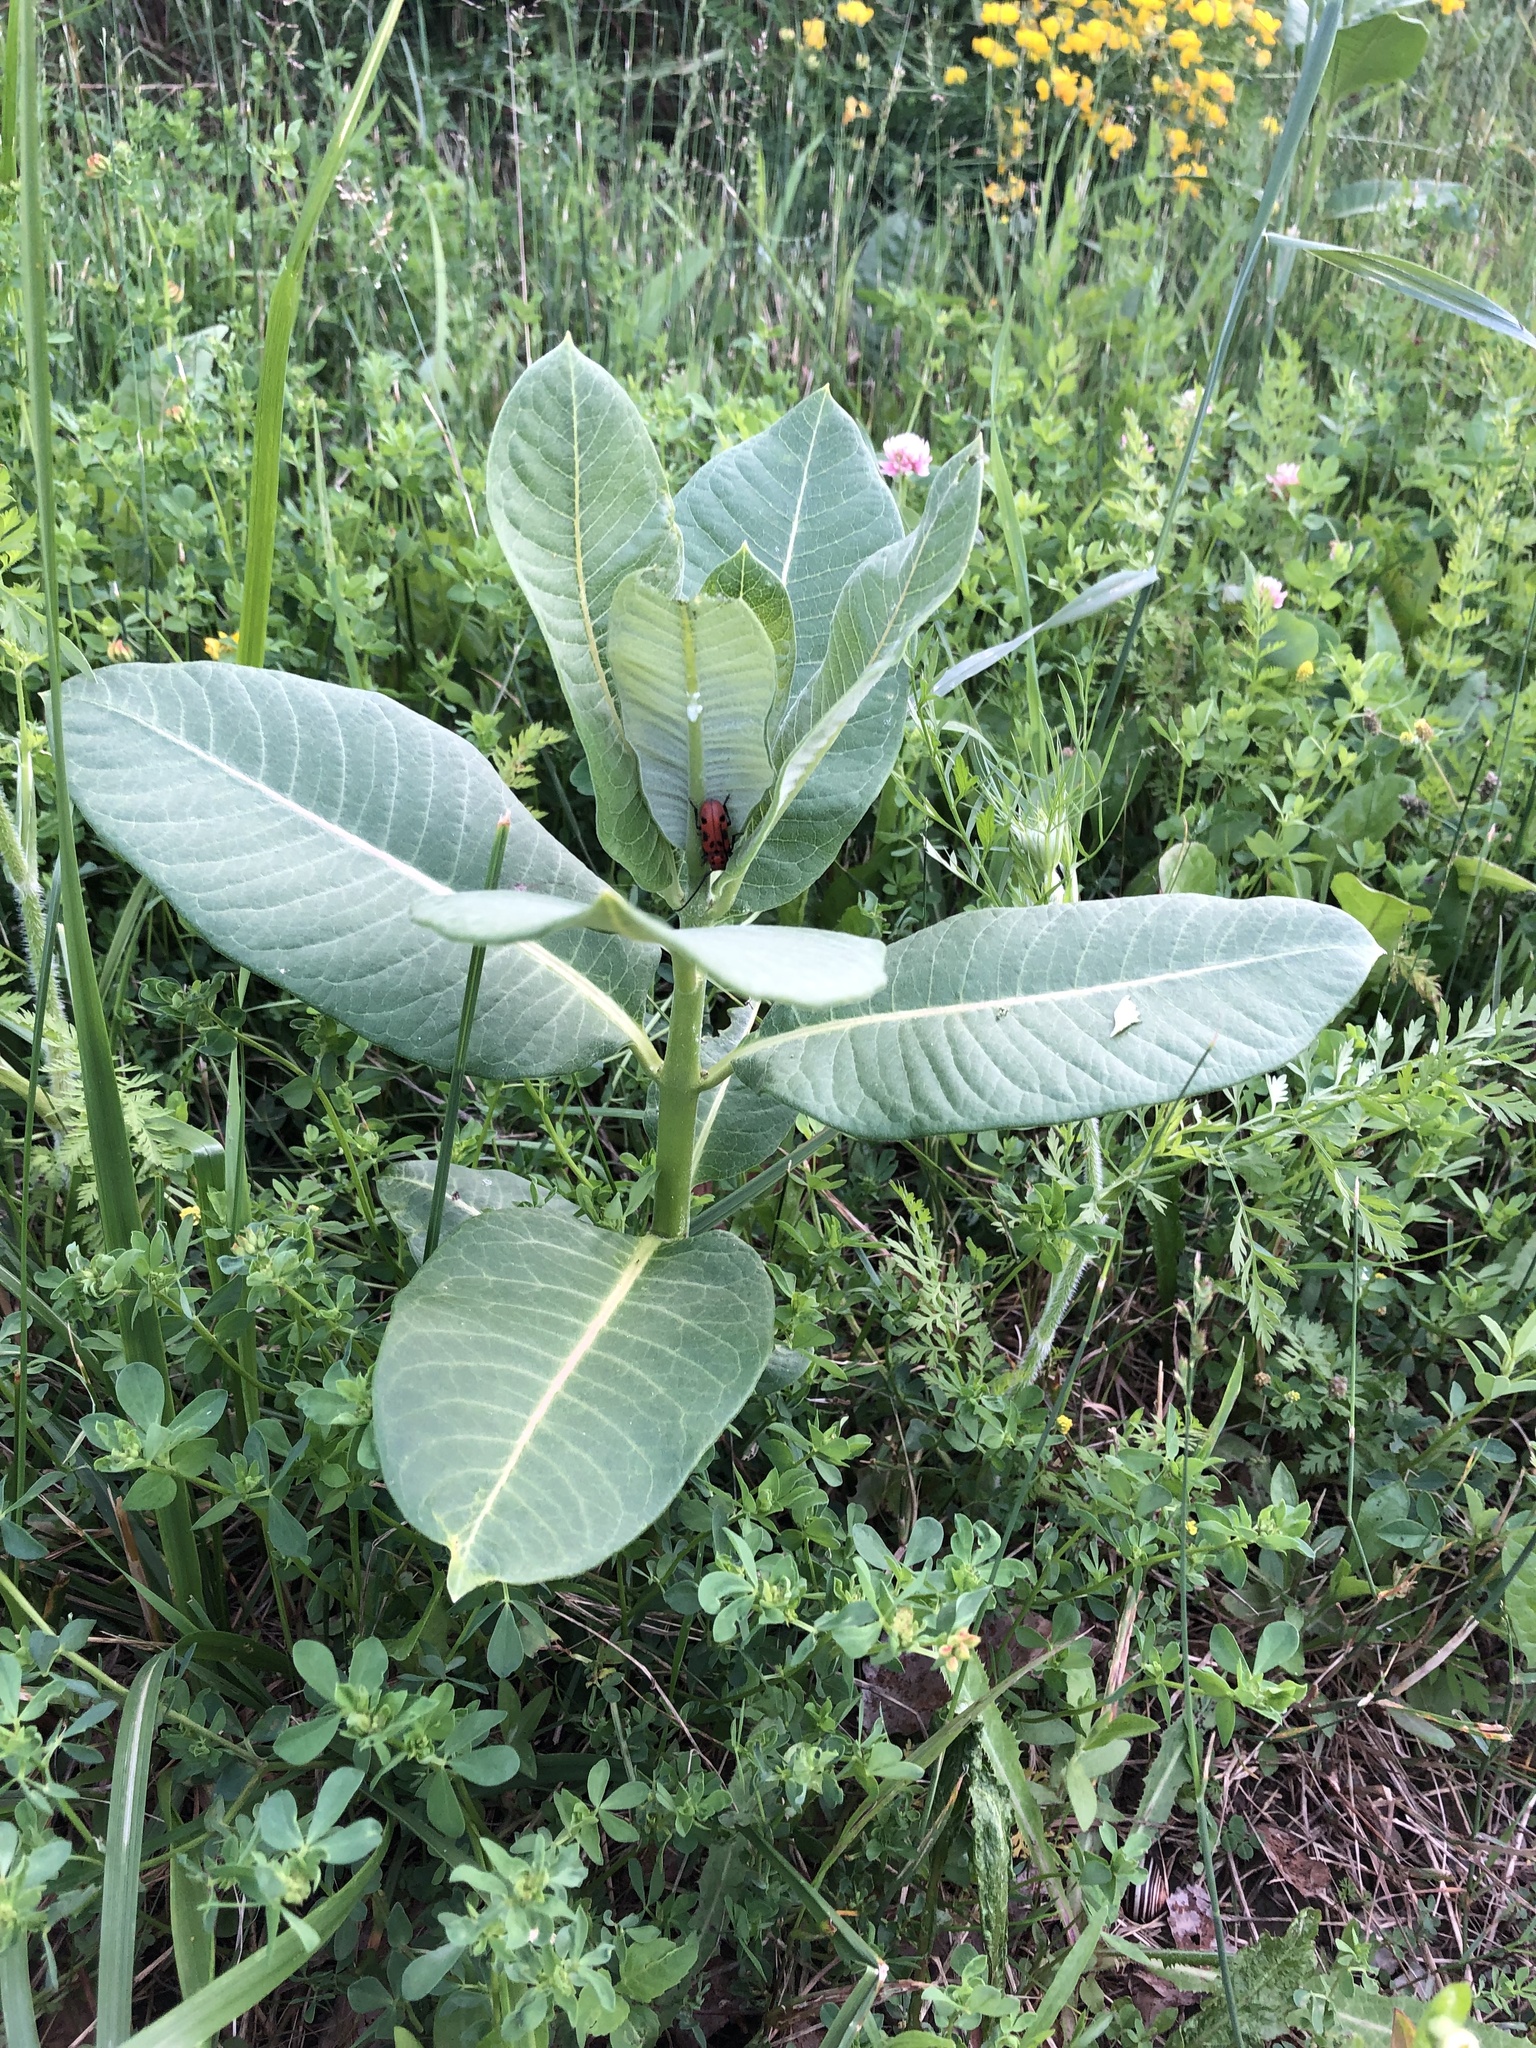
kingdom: Plantae
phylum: Tracheophyta
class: Magnoliopsida
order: Gentianales
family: Apocynaceae
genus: Asclepias
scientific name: Asclepias syriaca
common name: Common milkweed
